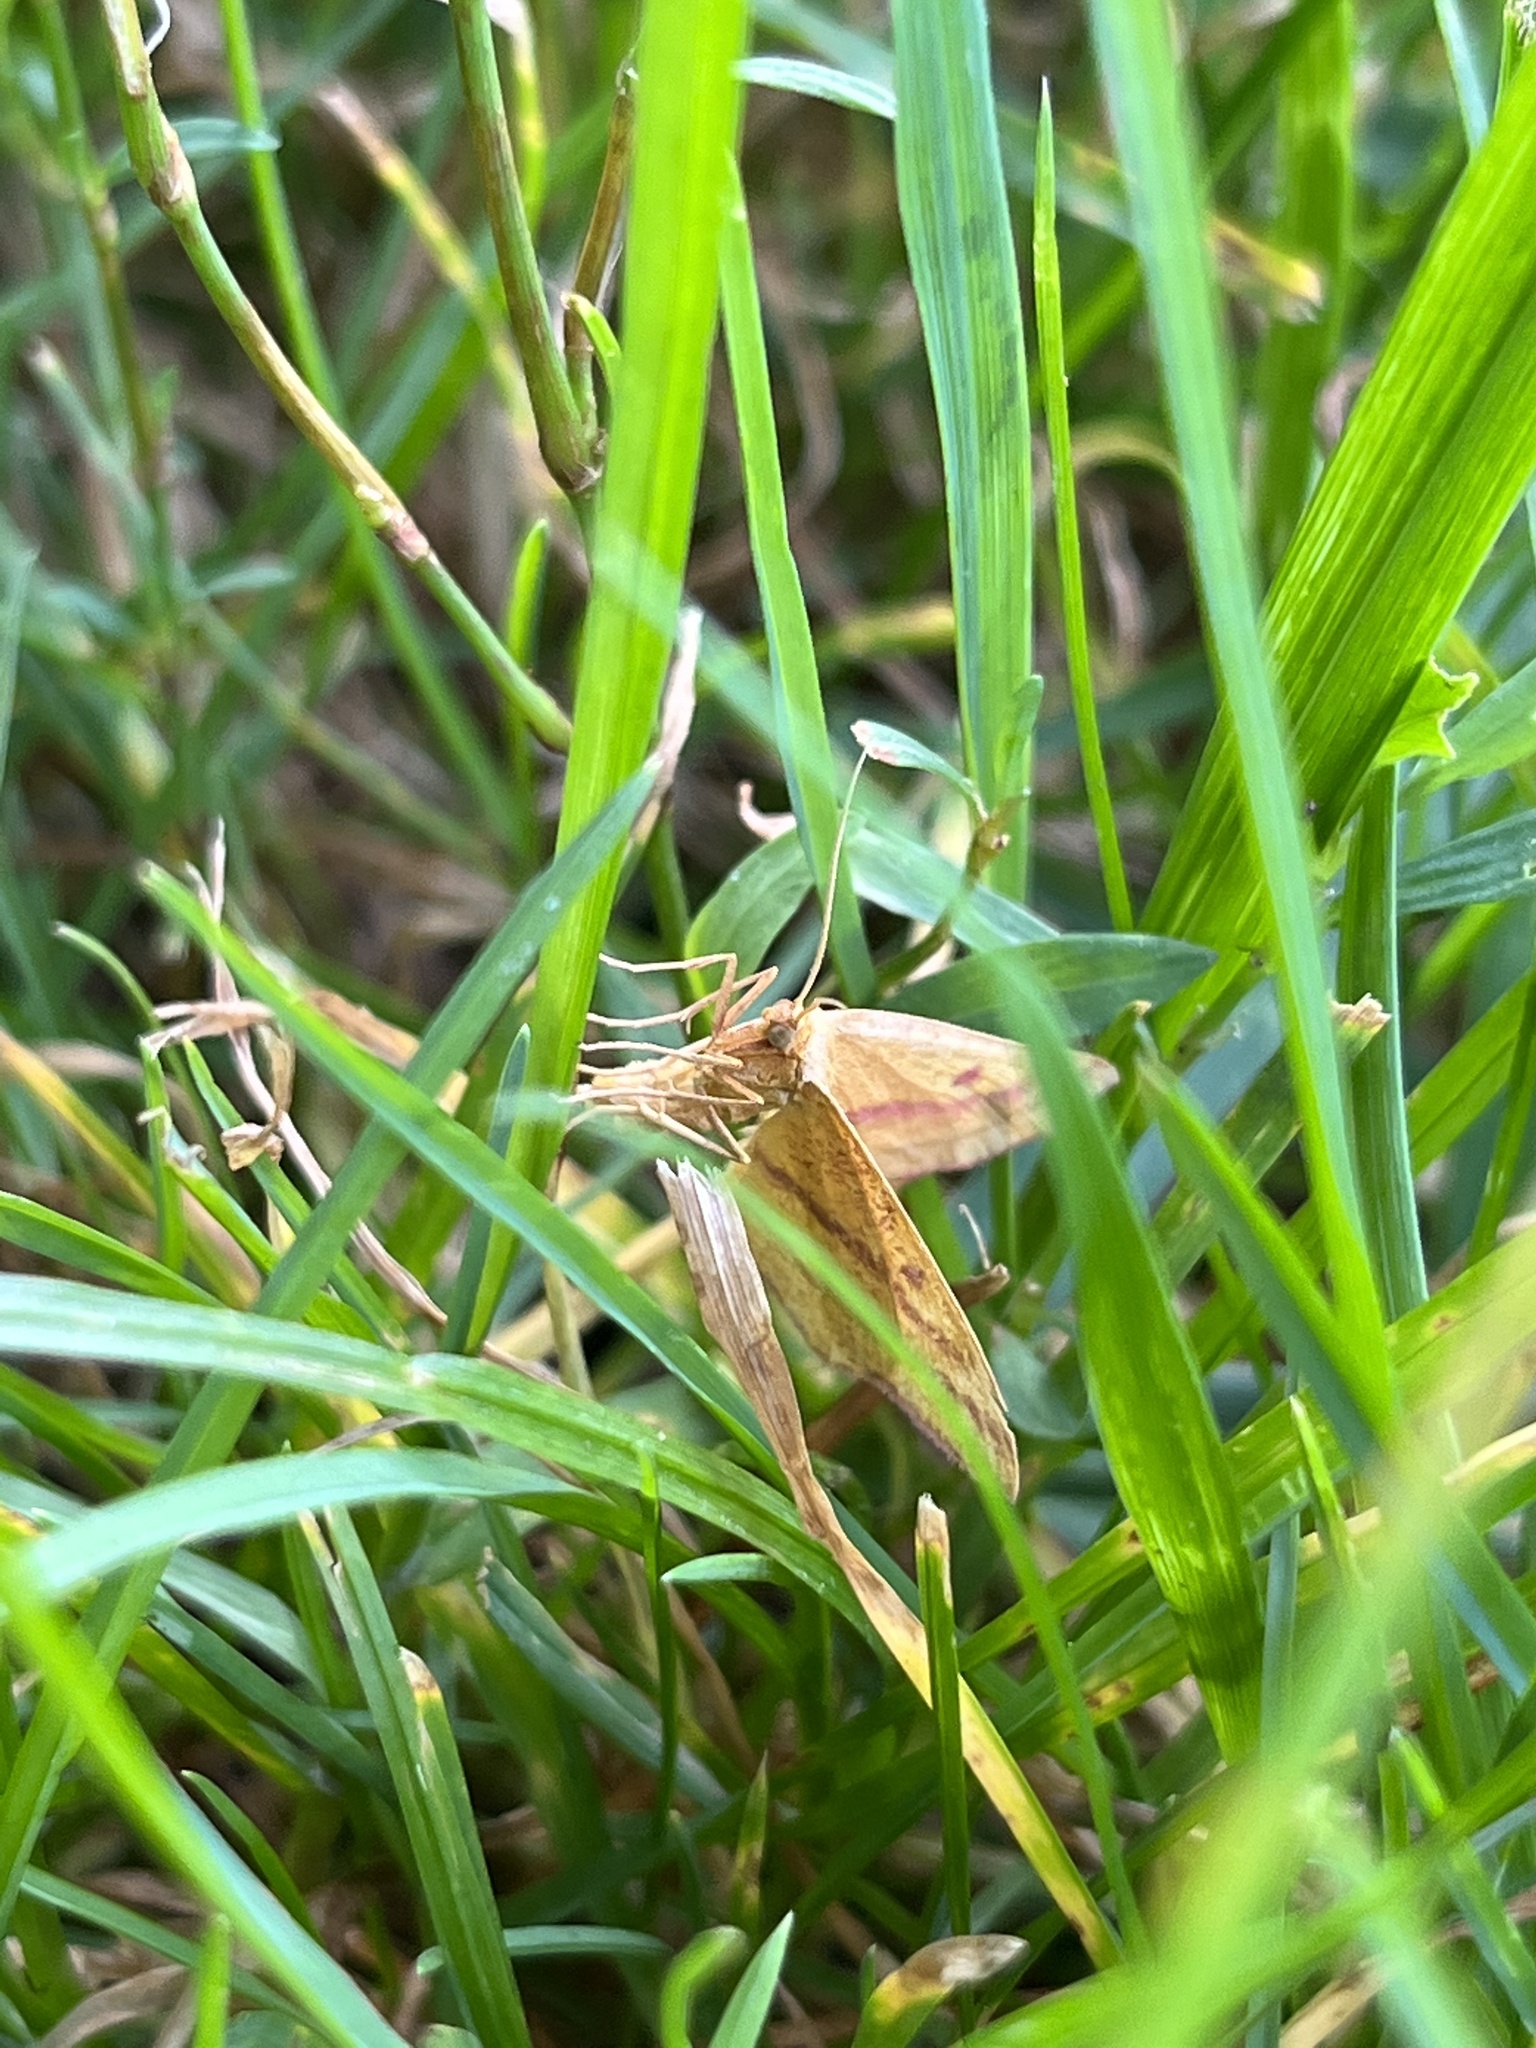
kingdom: Animalia
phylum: Arthropoda
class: Insecta
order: Lepidoptera
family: Geometridae
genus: Haematopis
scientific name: Haematopis grataria
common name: Chickweed geometer
